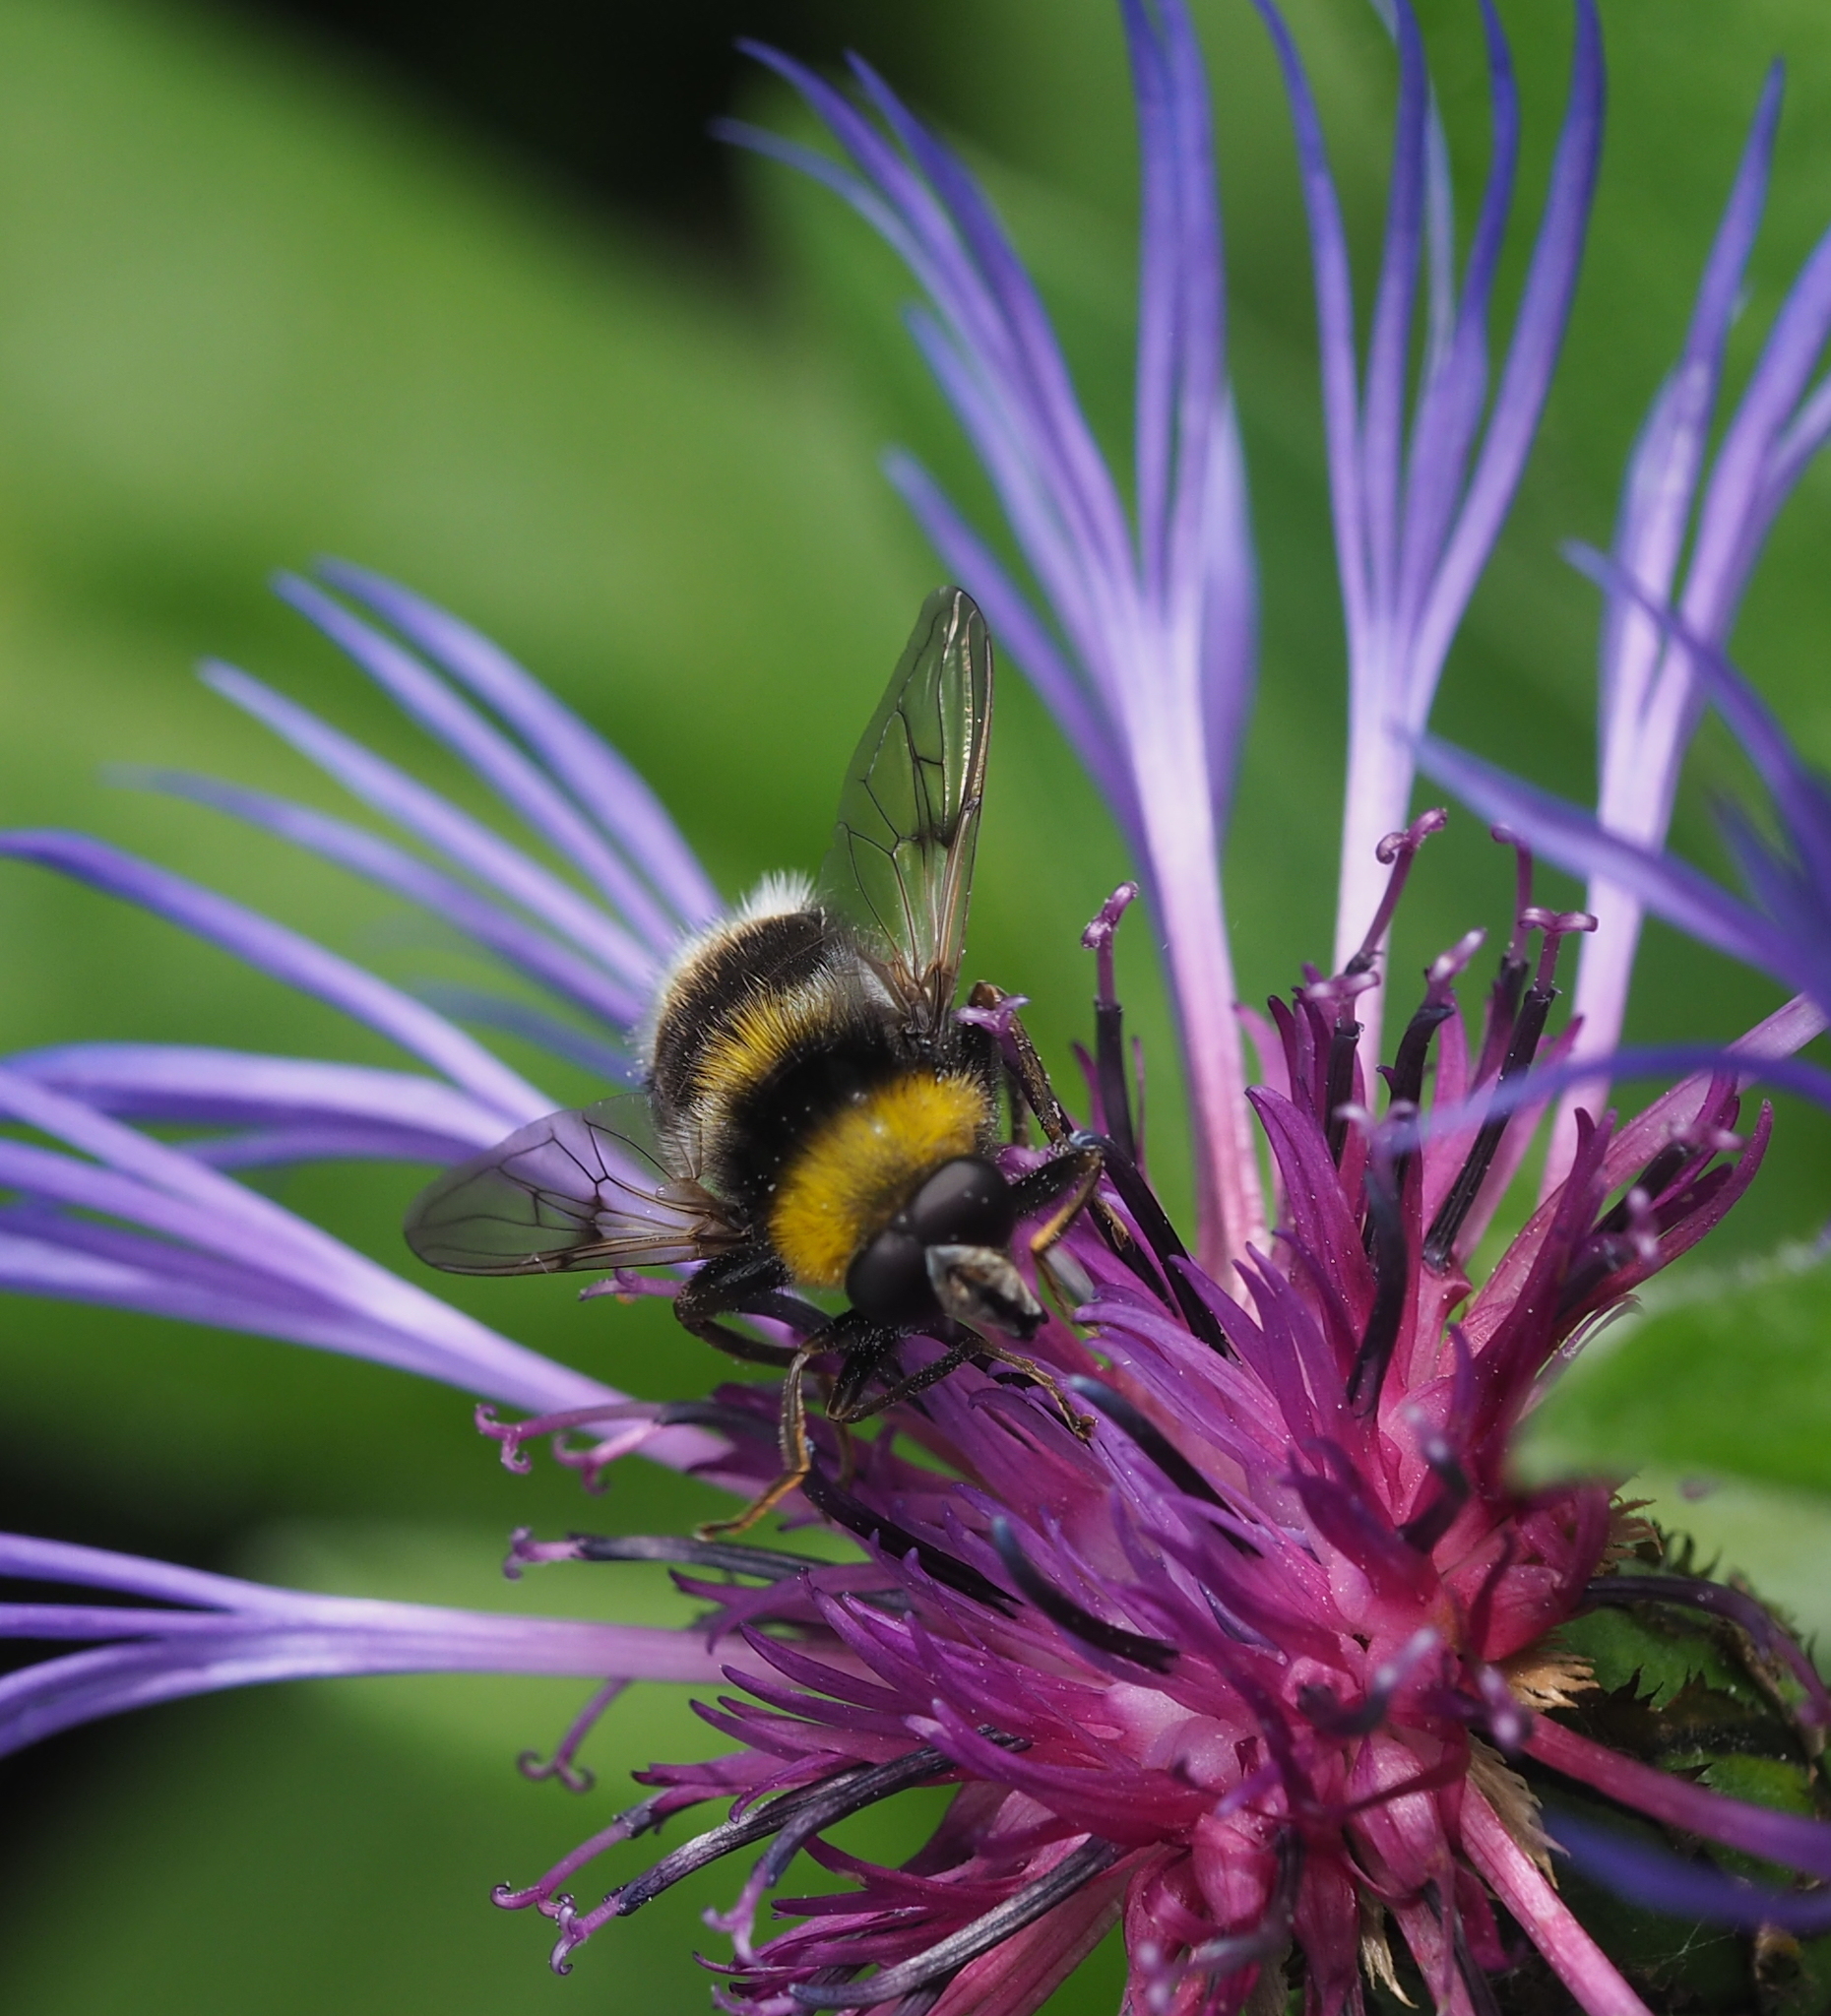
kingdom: Animalia
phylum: Arthropoda
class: Insecta
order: Diptera
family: Syrphidae
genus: Sericomyia
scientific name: Sericomyia bombiformis
